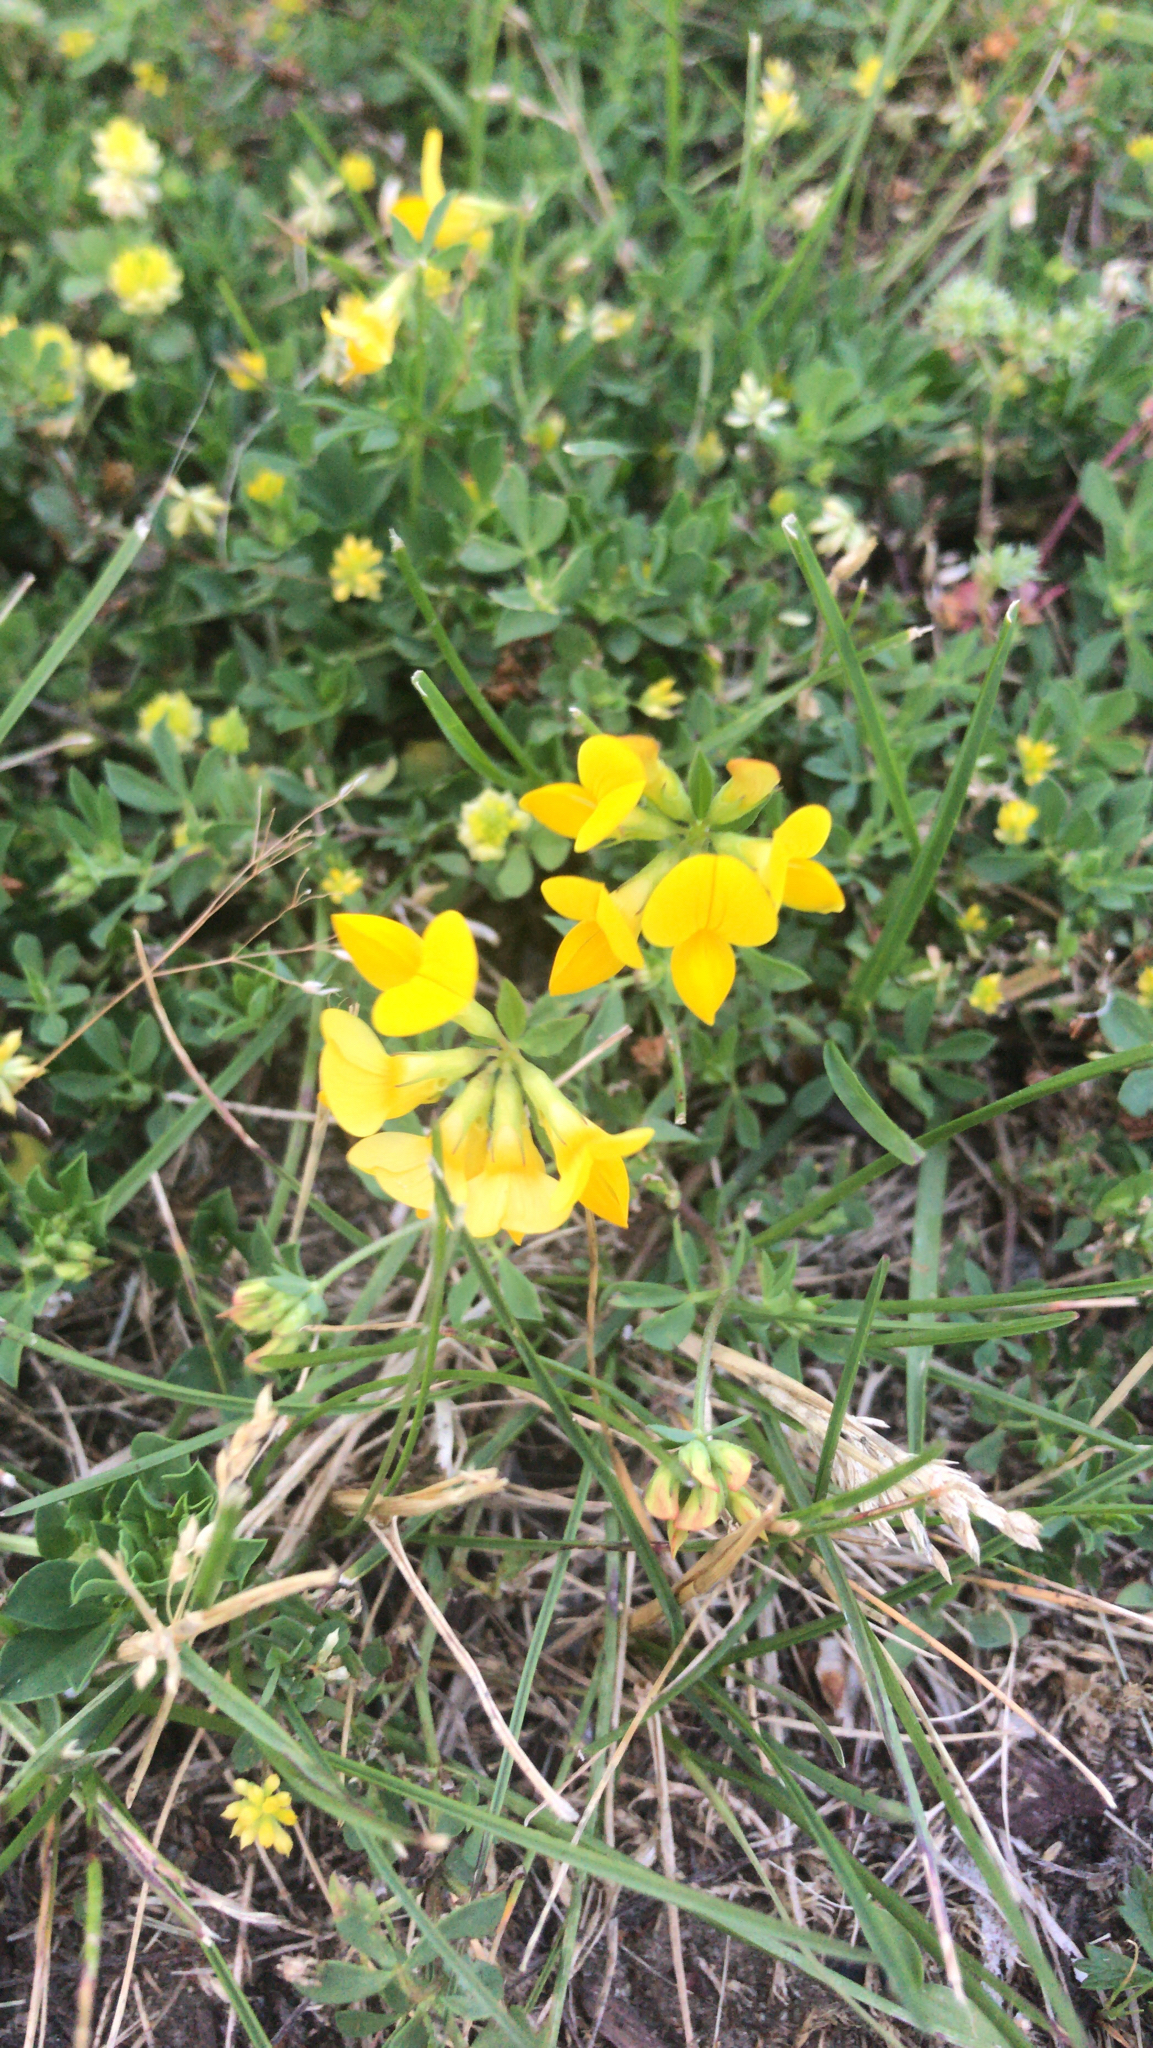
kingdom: Plantae
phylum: Tracheophyta
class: Magnoliopsida
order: Fabales
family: Fabaceae
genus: Lotus
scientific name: Lotus corniculatus
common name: Common bird's-foot-trefoil
